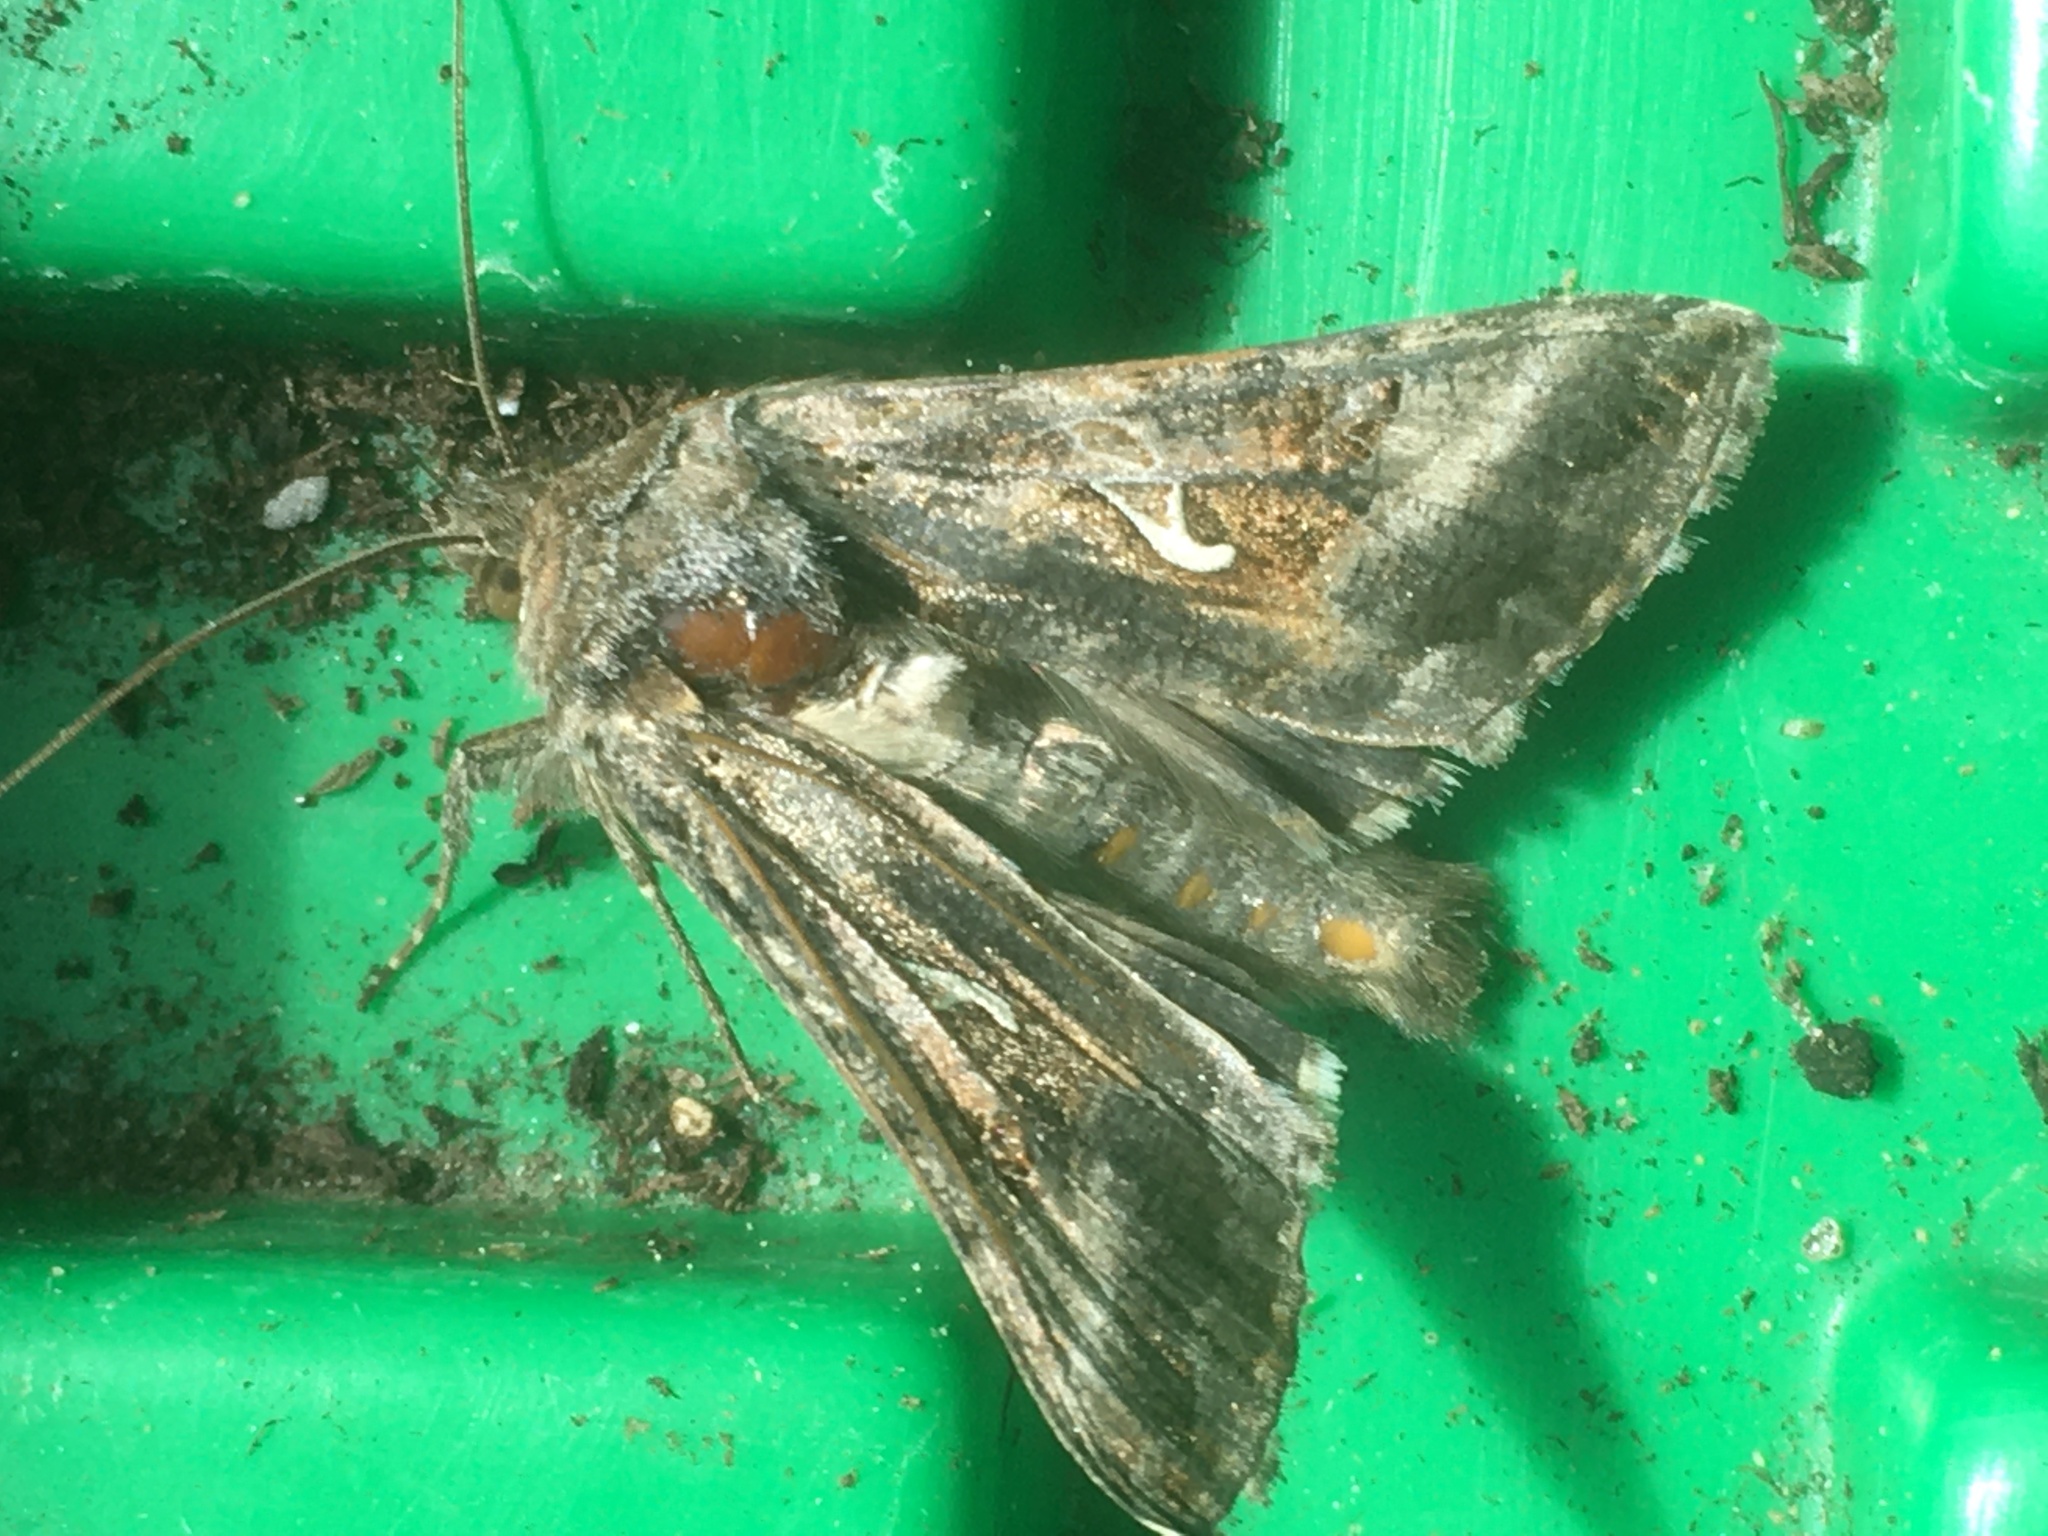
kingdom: Animalia
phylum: Arthropoda
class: Insecta
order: Lepidoptera
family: Noctuidae
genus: Autographa
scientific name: Autographa gamma
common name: Silver y
